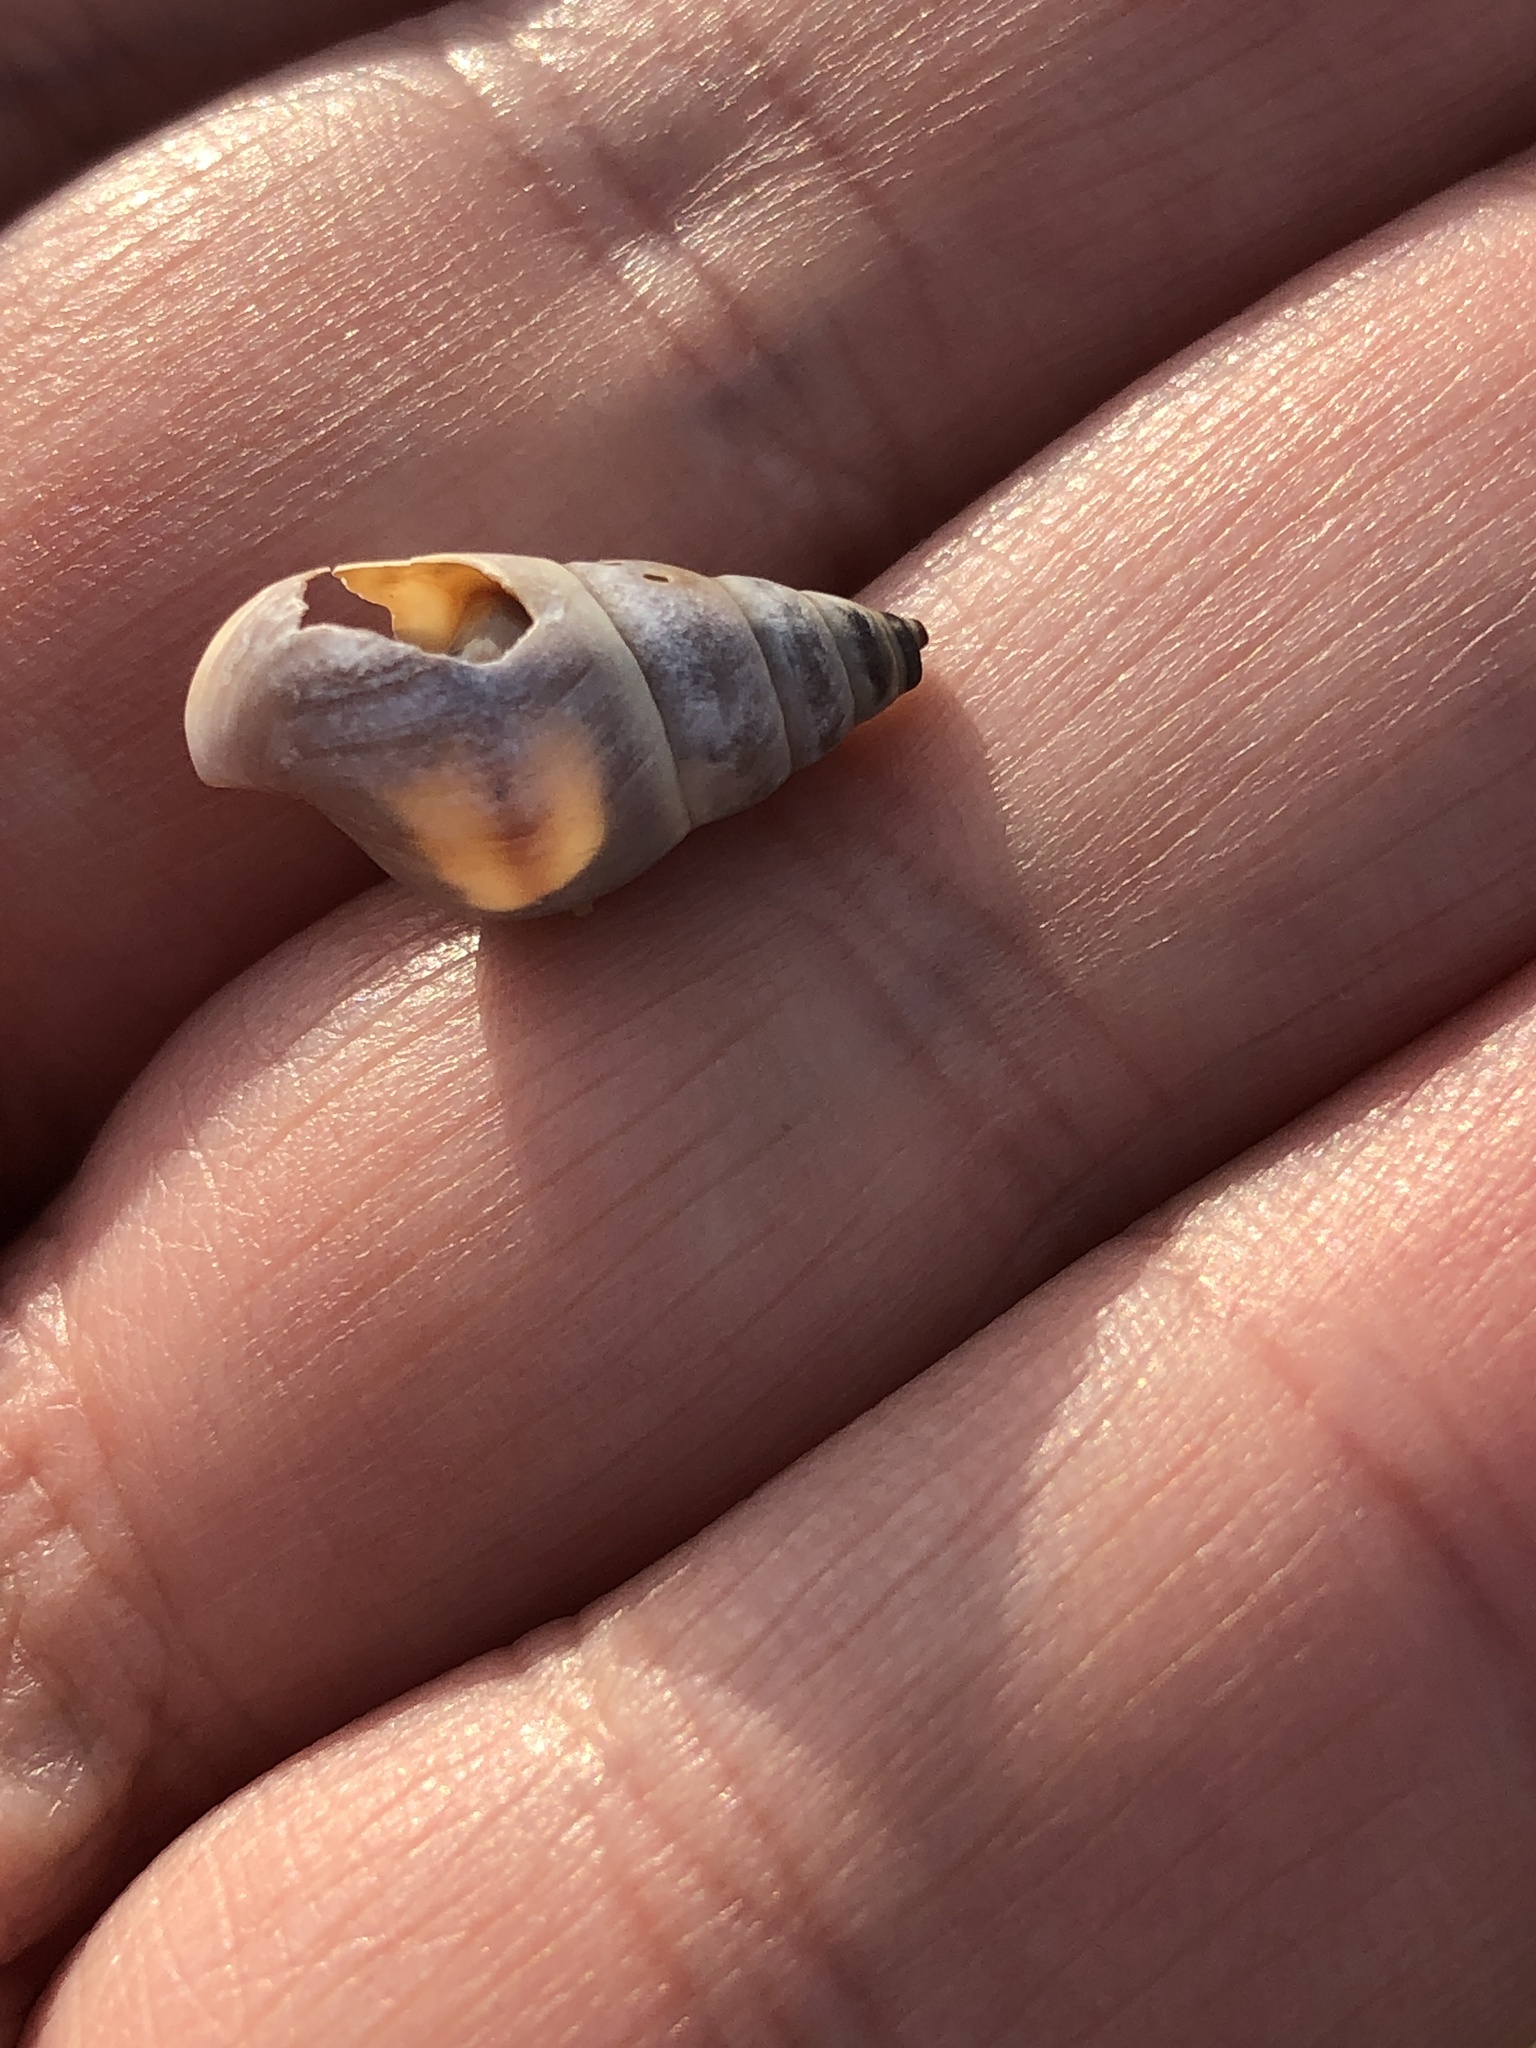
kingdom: Animalia
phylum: Mollusca
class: Gastropoda
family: Pleuroceridae
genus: Elimia
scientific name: Elimia livescens
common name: Liver elimia
